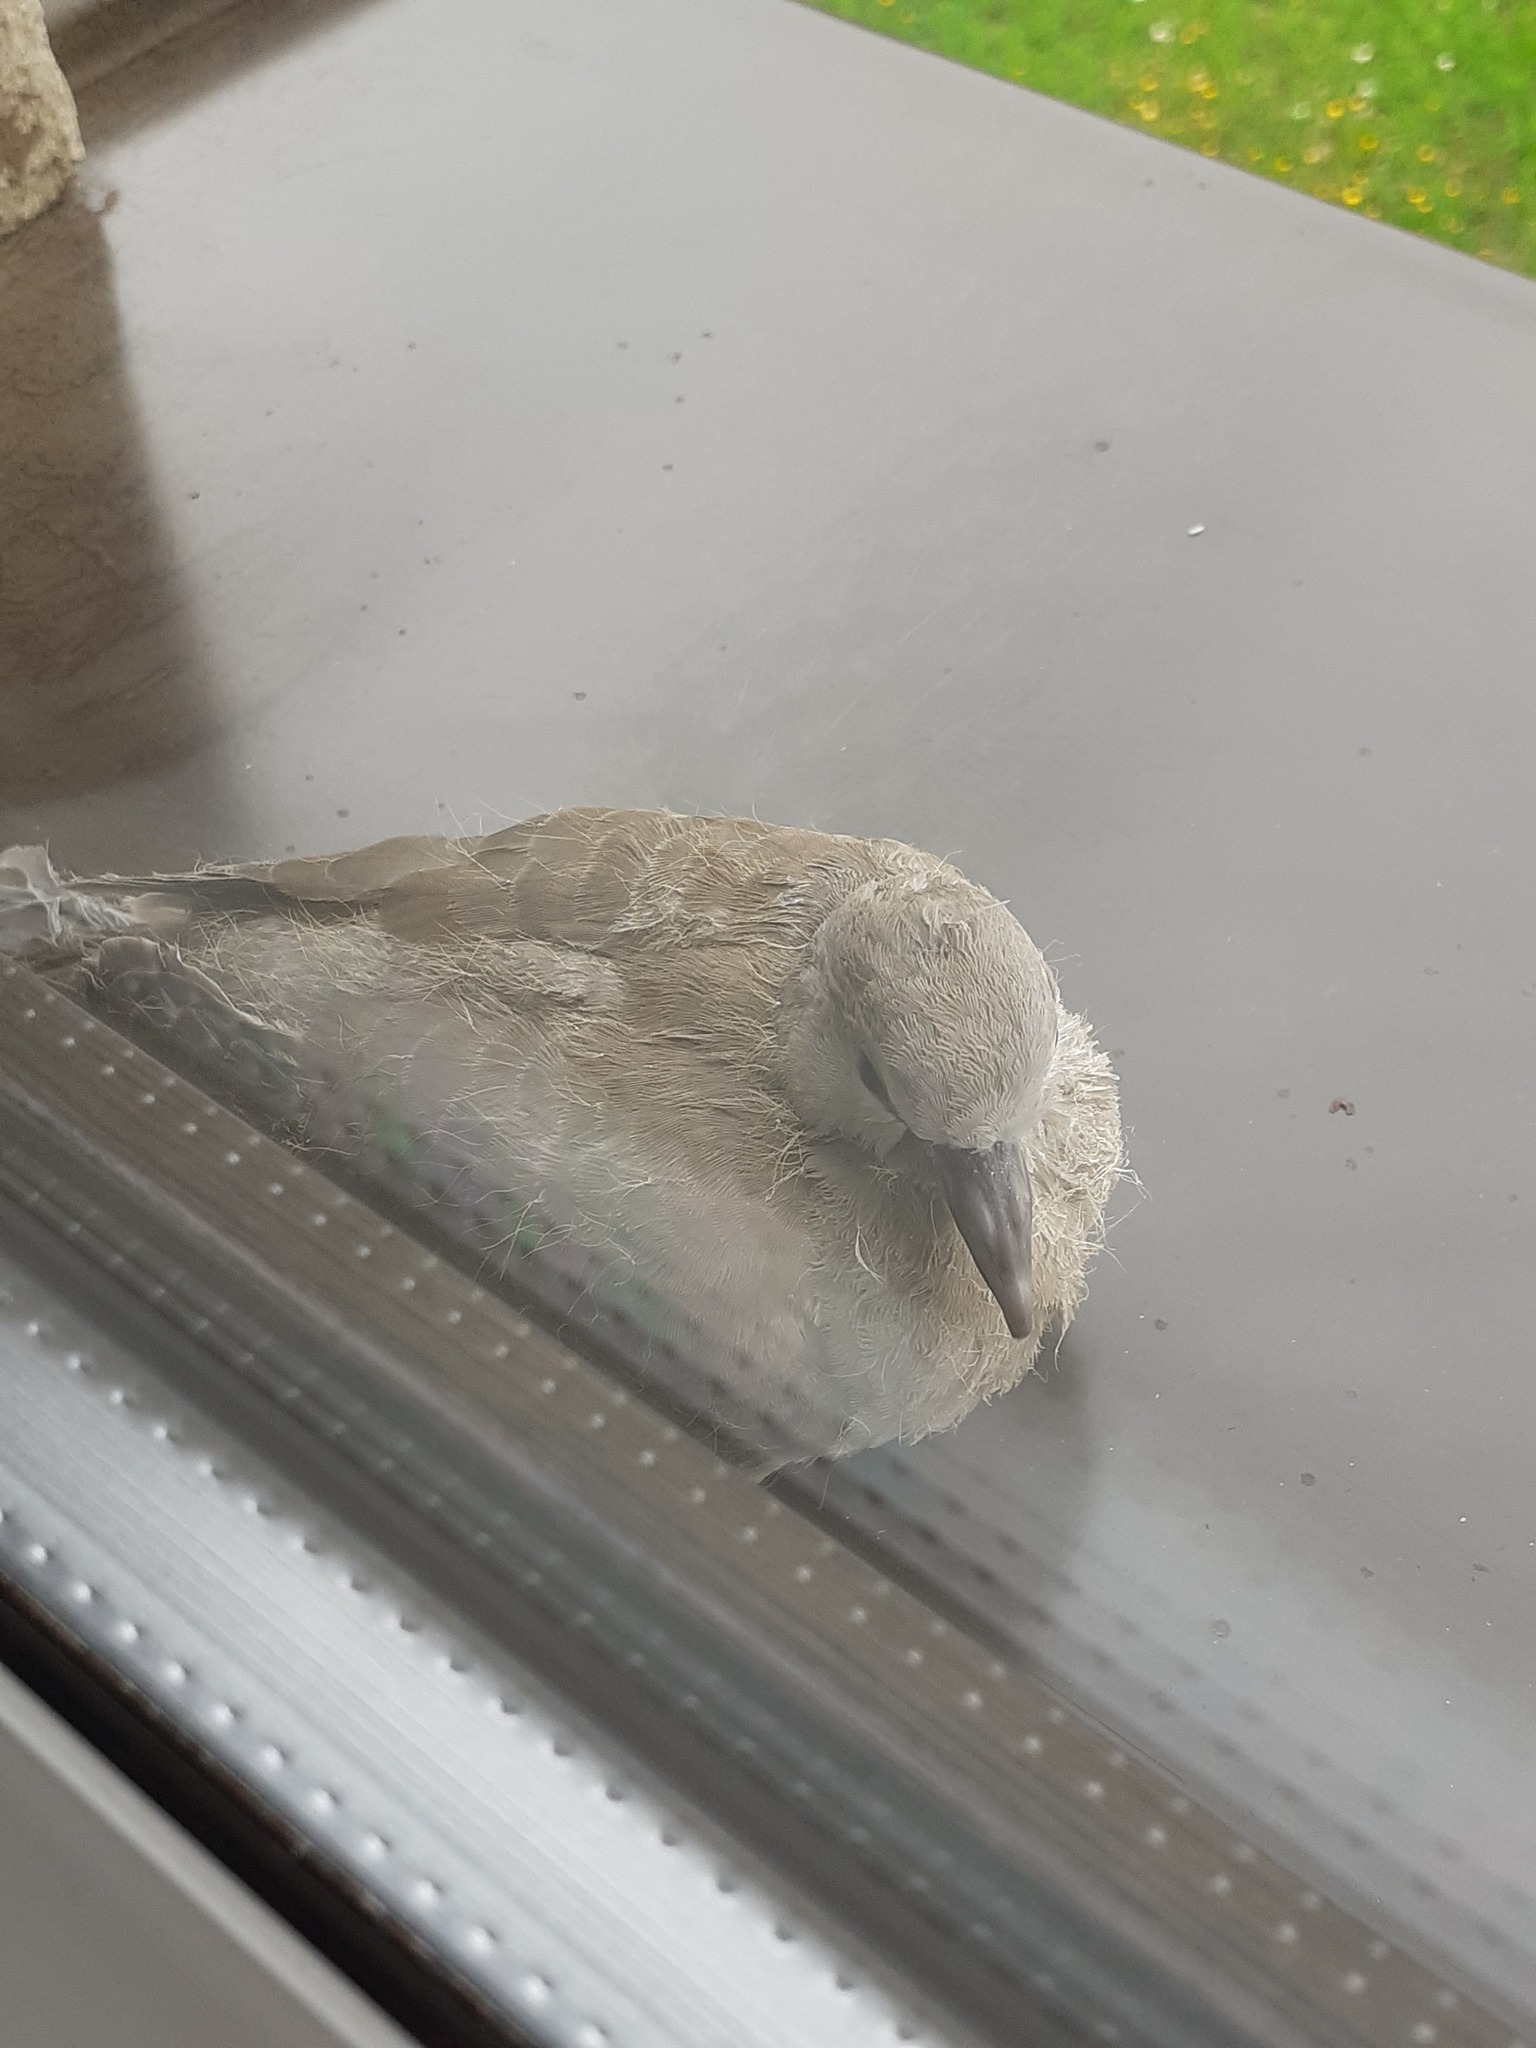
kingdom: Animalia
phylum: Chordata
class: Aves
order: Columbiformes
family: Columbidae
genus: Streptopelia
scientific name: Streptopelia decaocto
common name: Eurasian collared dove
